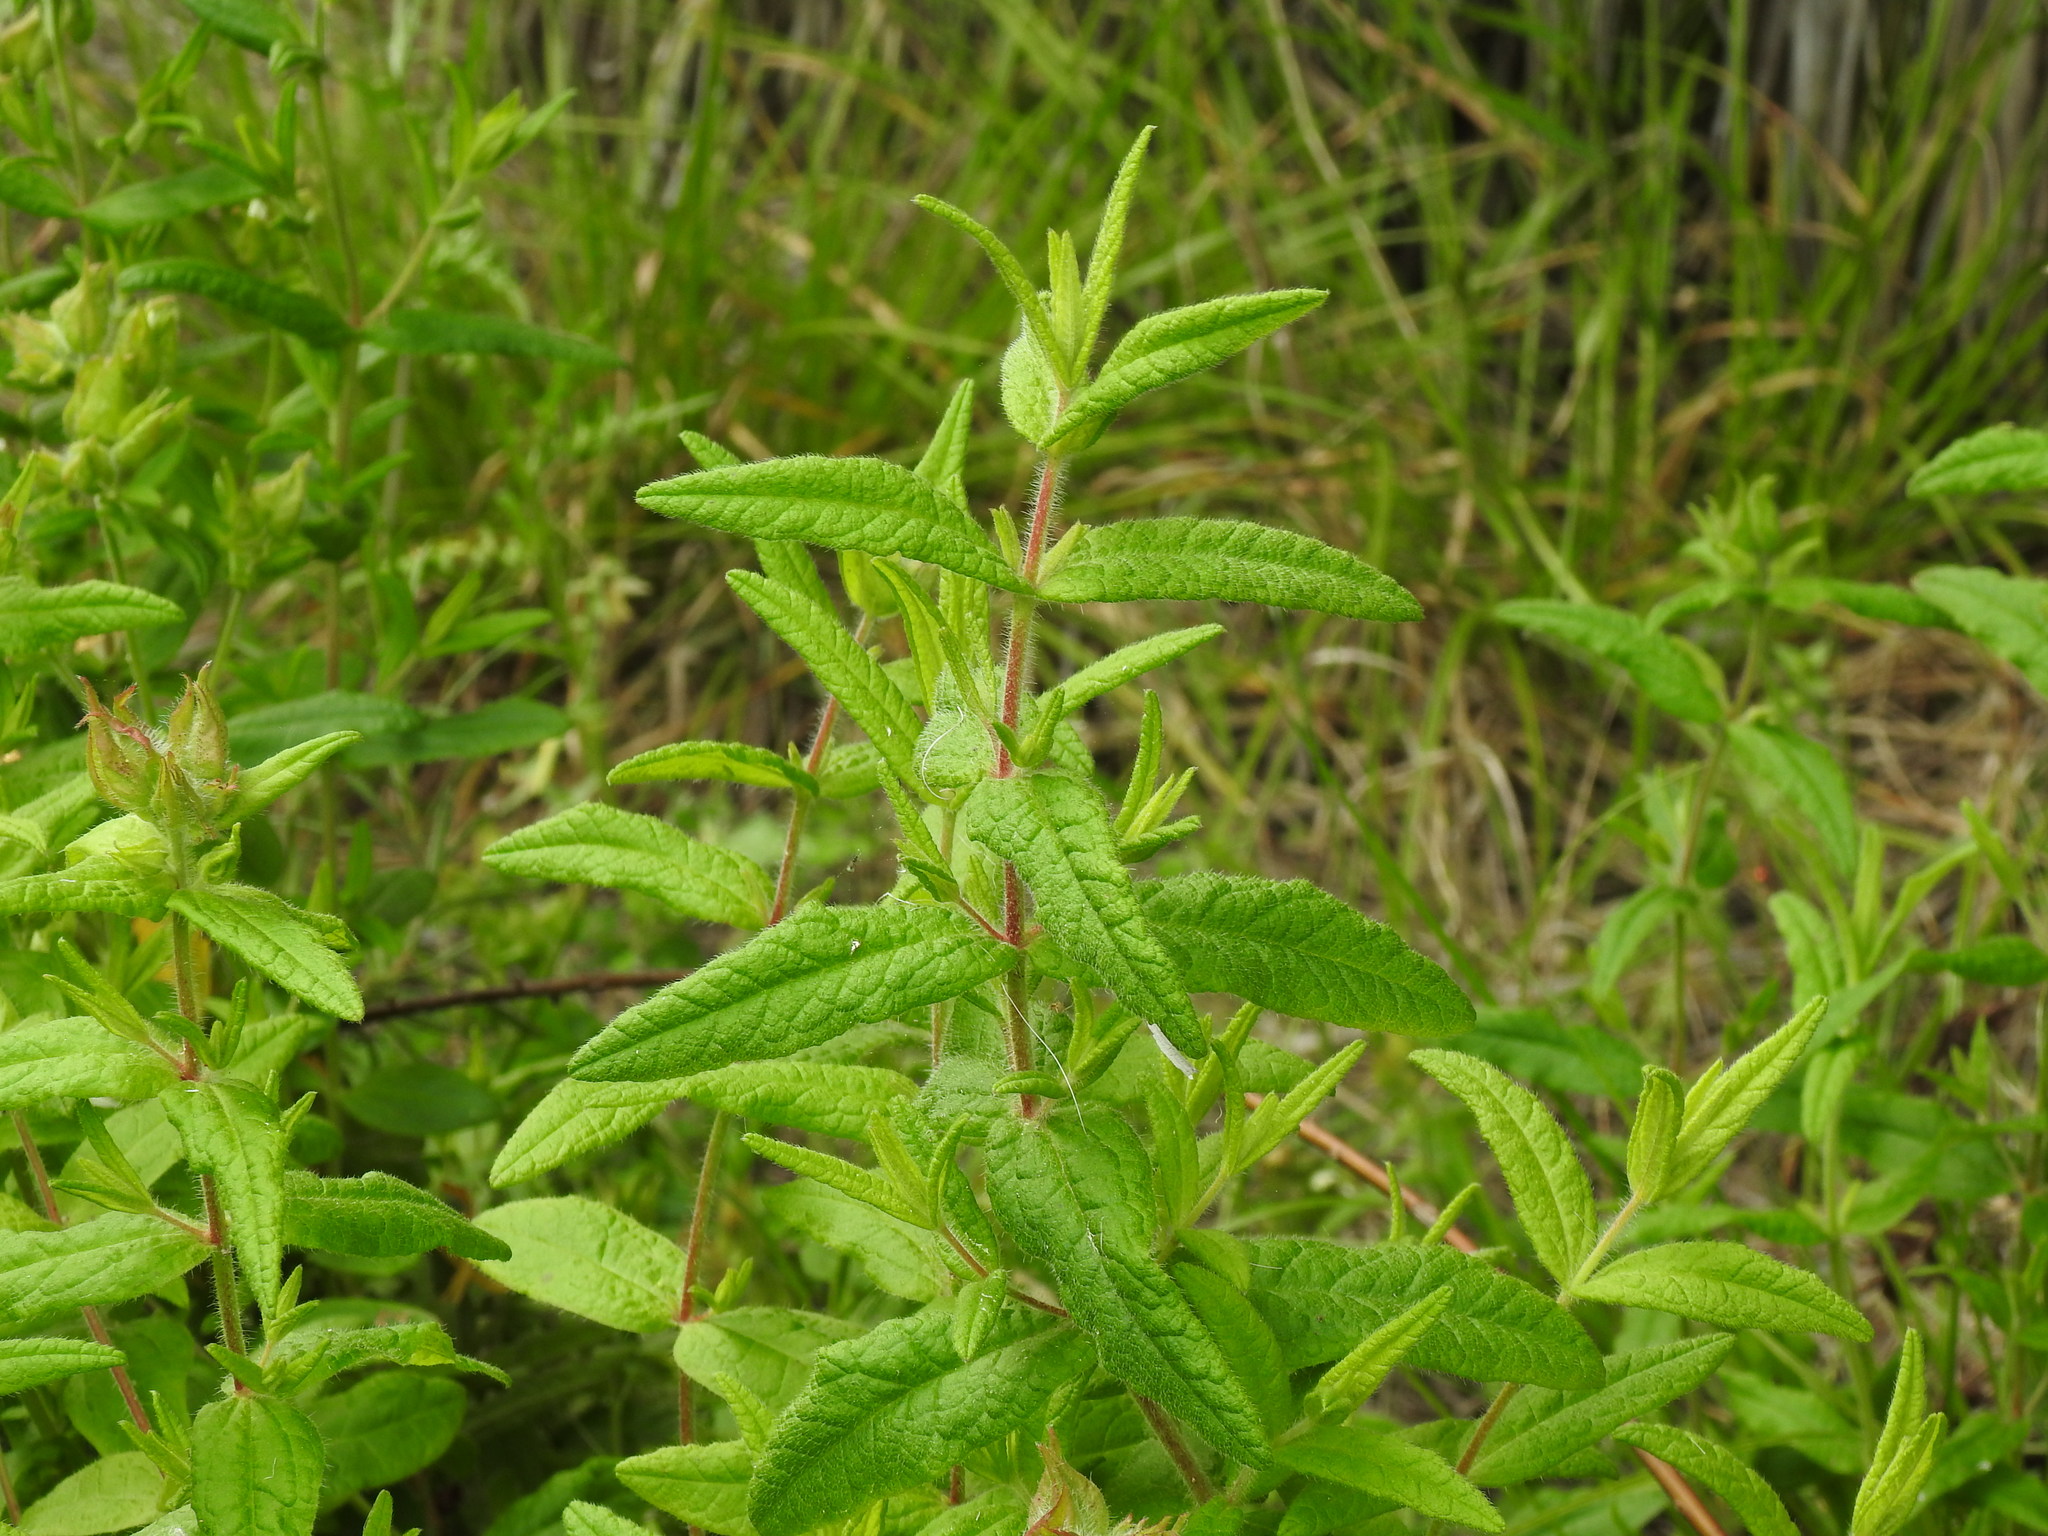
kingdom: Plantae
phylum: Tracheophyta
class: Magnoliopsida
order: Malvales
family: Cistaceae
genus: Cistus
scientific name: Cistus inflatus
